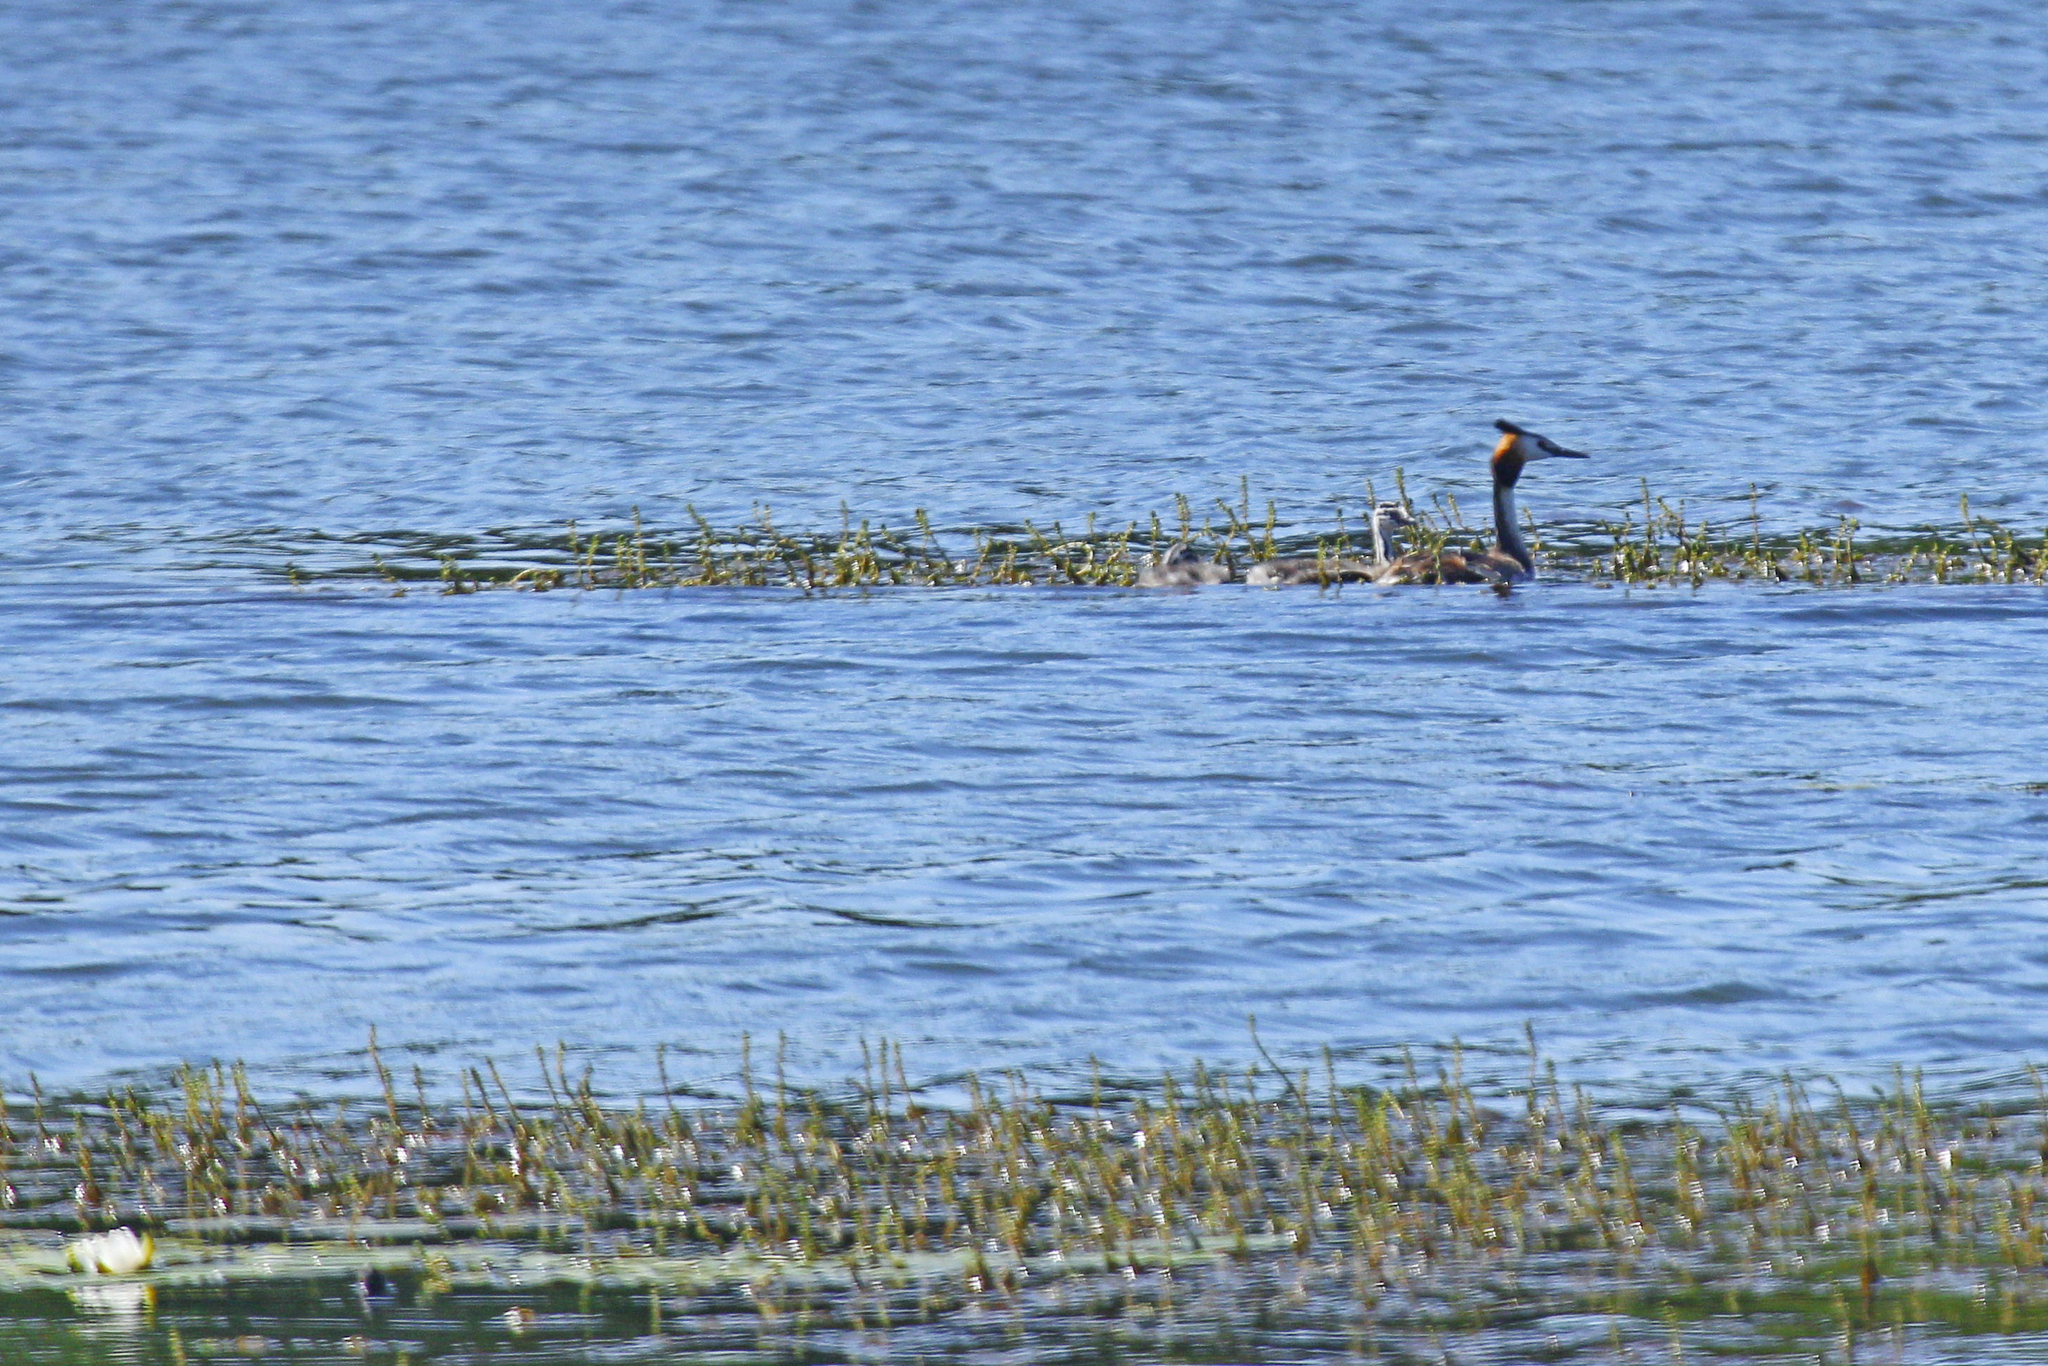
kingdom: Animalia
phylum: Chordata
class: Aves
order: Podicipediformes
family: Podicipedidae
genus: Podiceps
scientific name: Podiceps cristatus
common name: Great crested grebe
